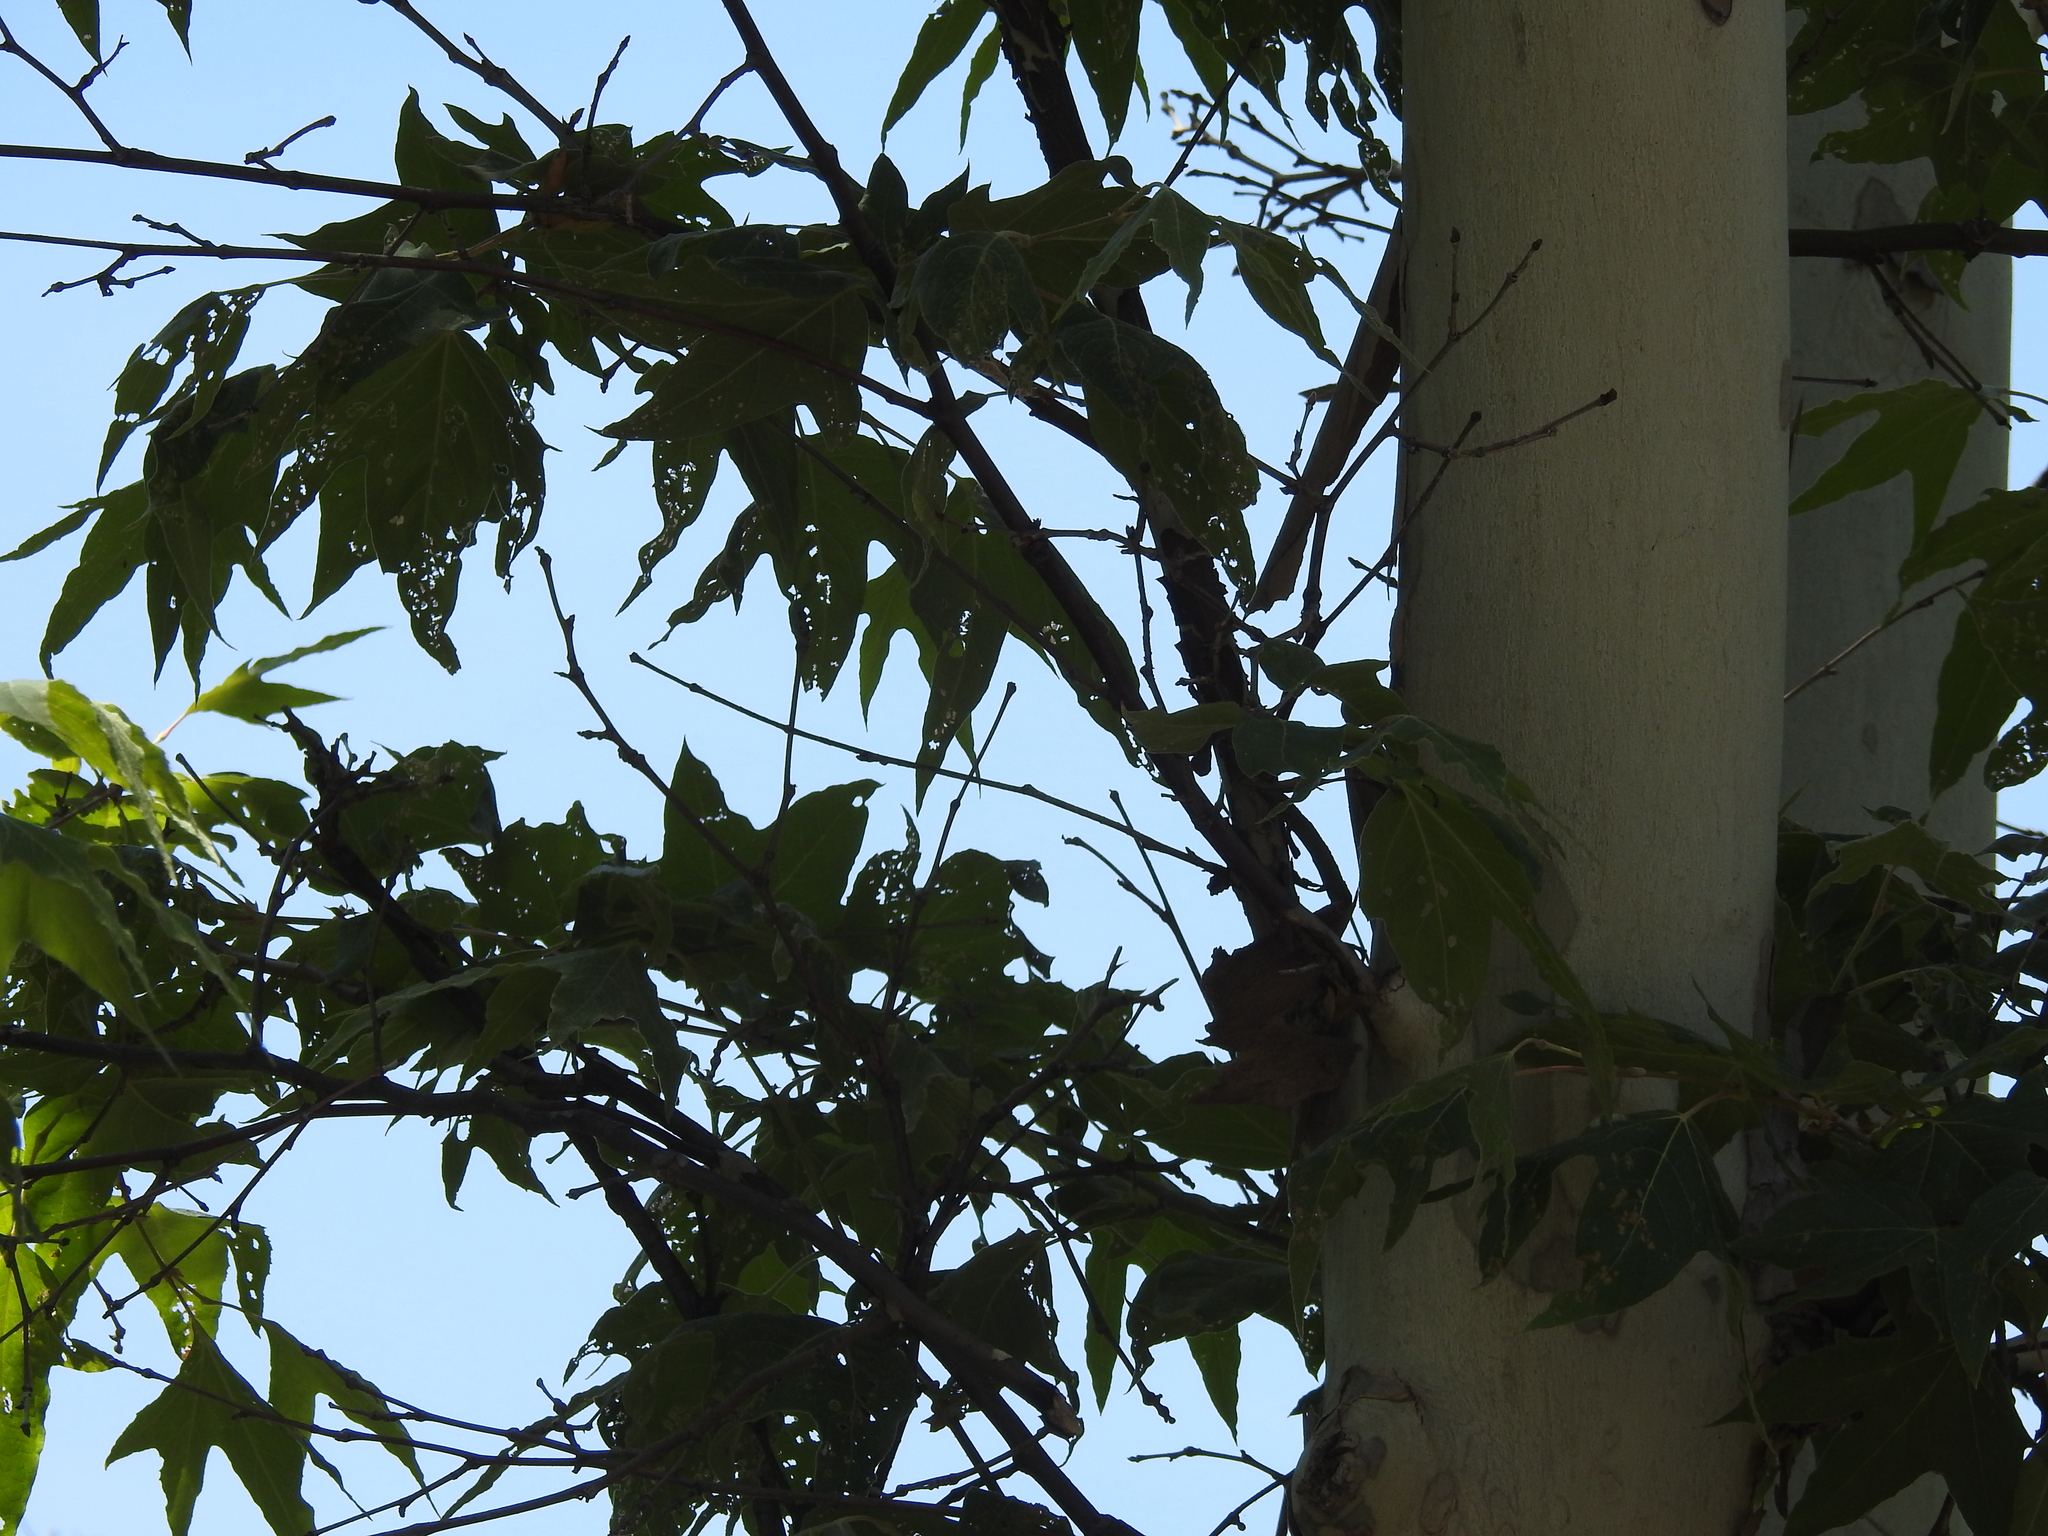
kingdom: Plantae
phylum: Tracheophyta
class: Magnoliopsida
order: Proteales
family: Platanaceae
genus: Platanus
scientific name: Platanus wrightii
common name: Arizona sycamore
